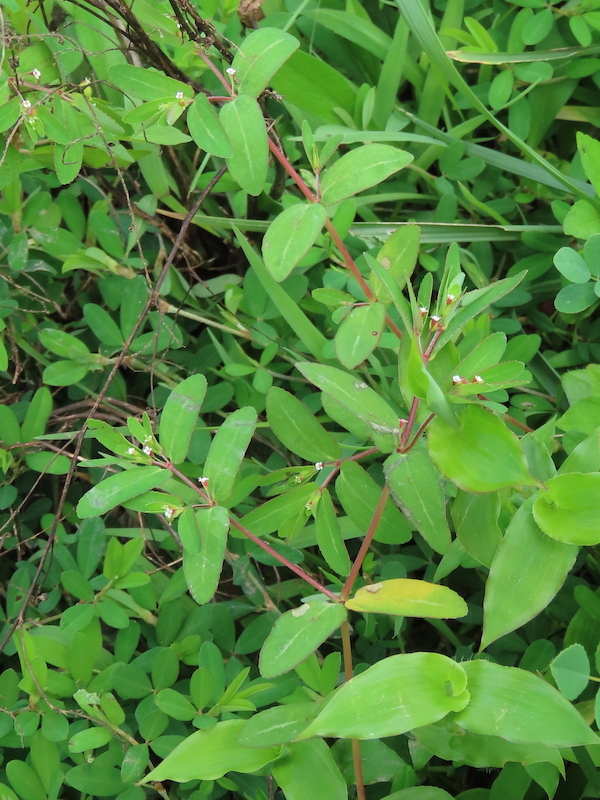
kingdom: Plantae
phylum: Tracheophyta
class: Magnoliopsida
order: Malpighiales
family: Euphorbiaceae
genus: Euphorbia
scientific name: Euphorbia nutans
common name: Eyebane
